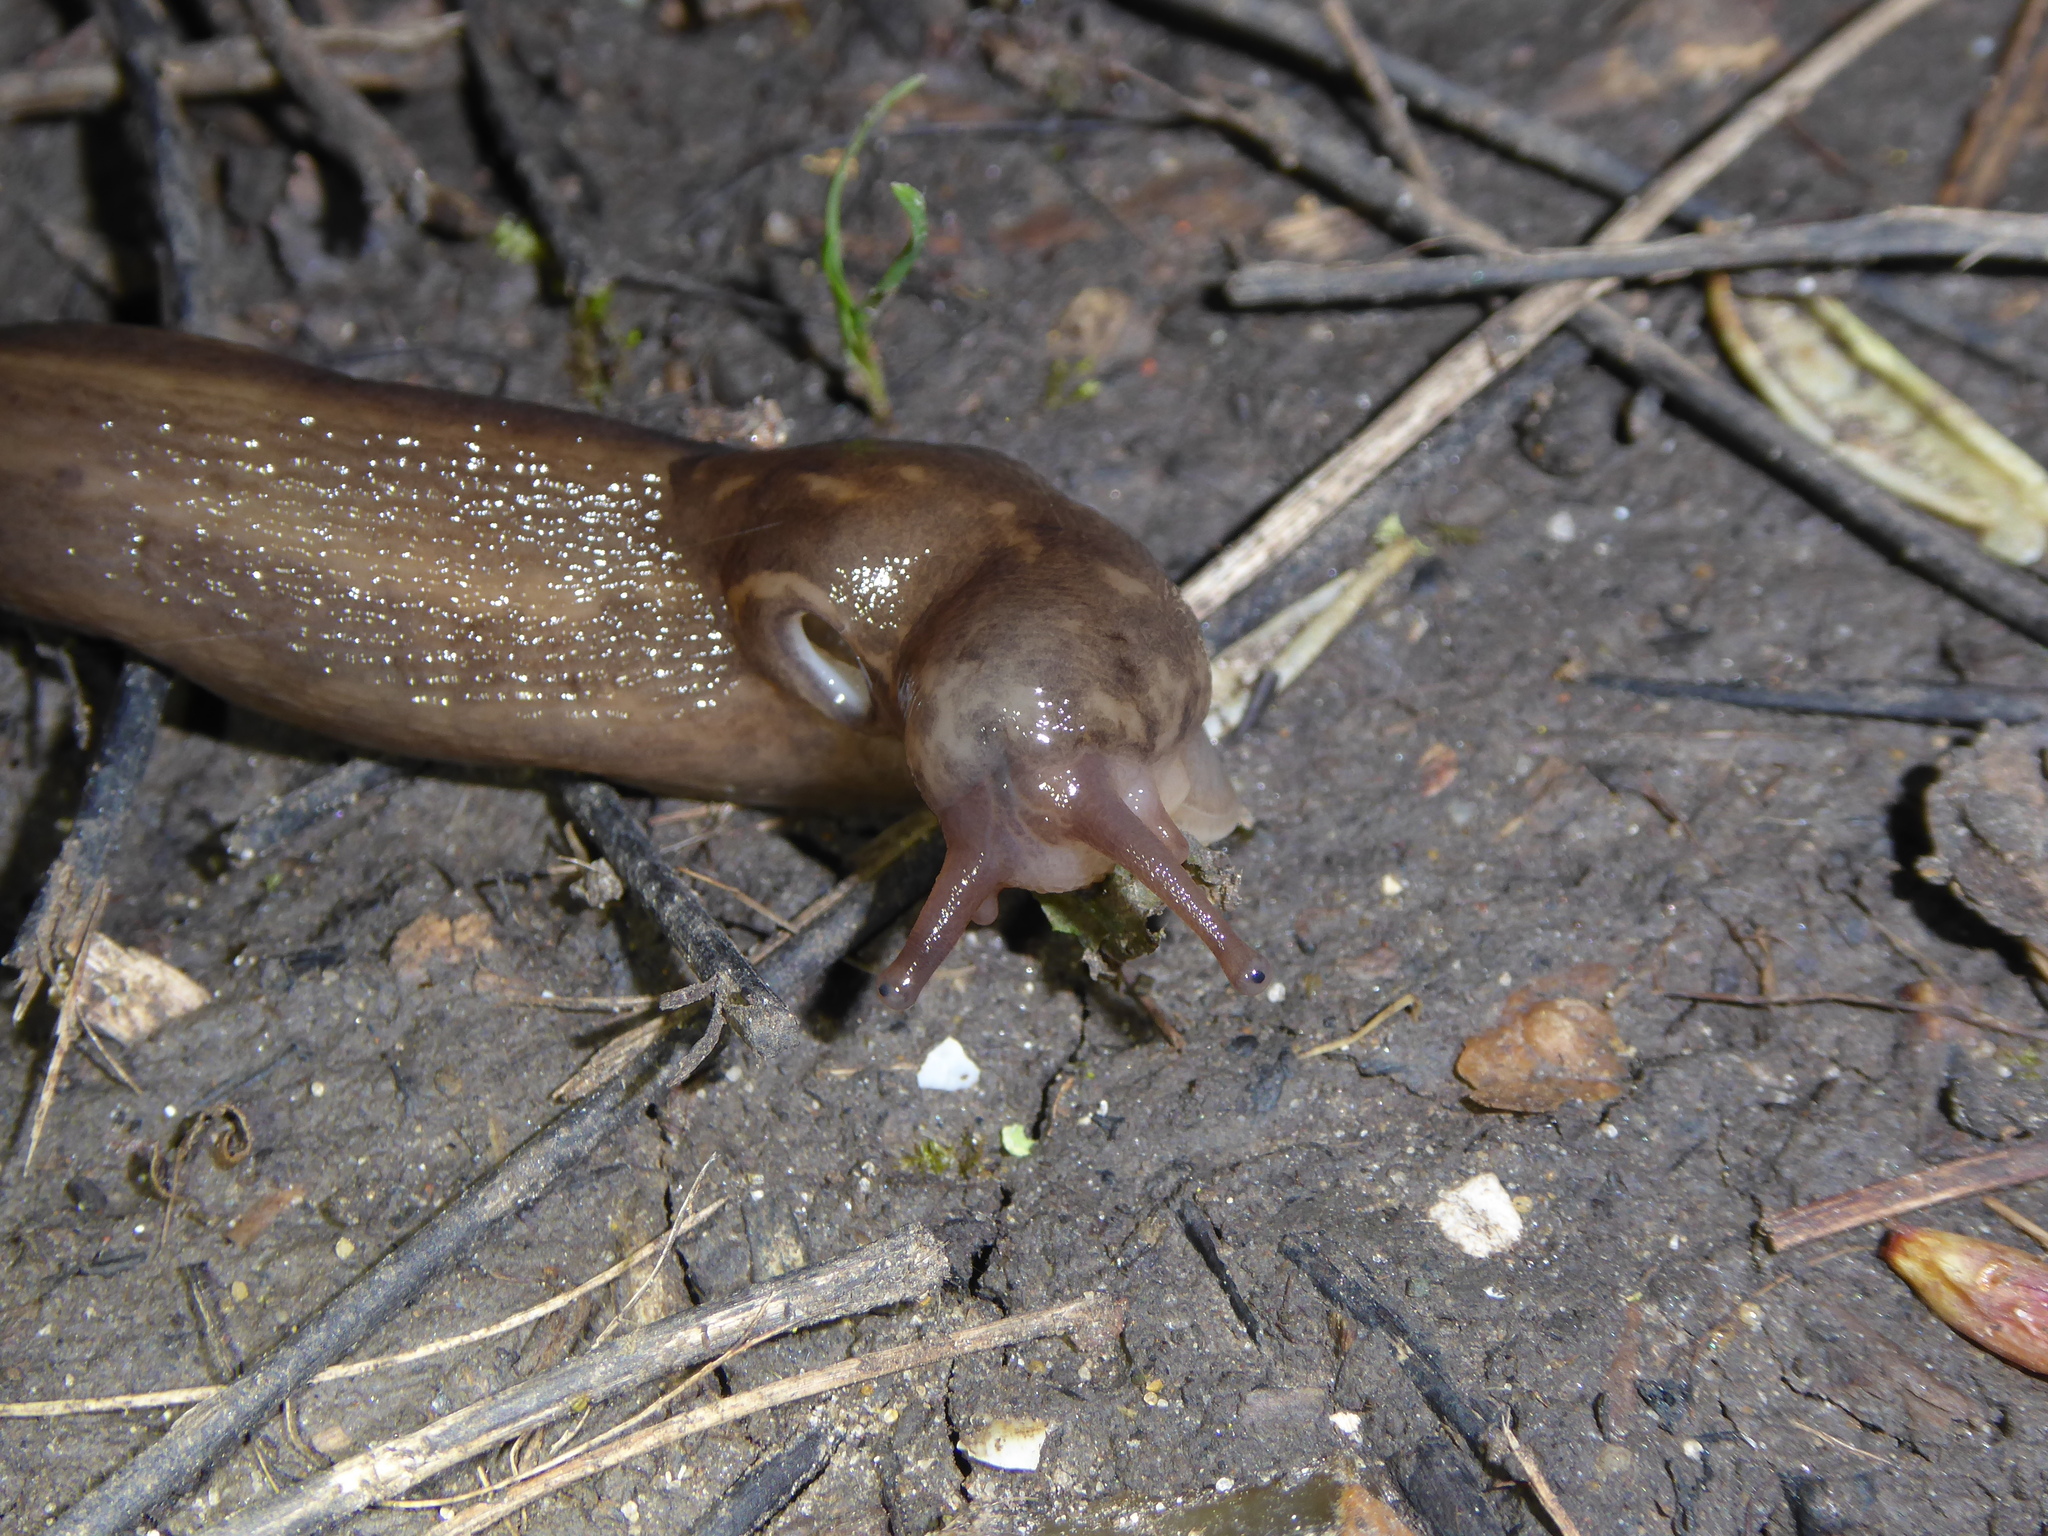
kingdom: Animalia
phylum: Mollusca
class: Gastropoda
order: Stylommatophora
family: Limacidae
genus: Limax
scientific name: Limax maximus
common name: Great grey slug
